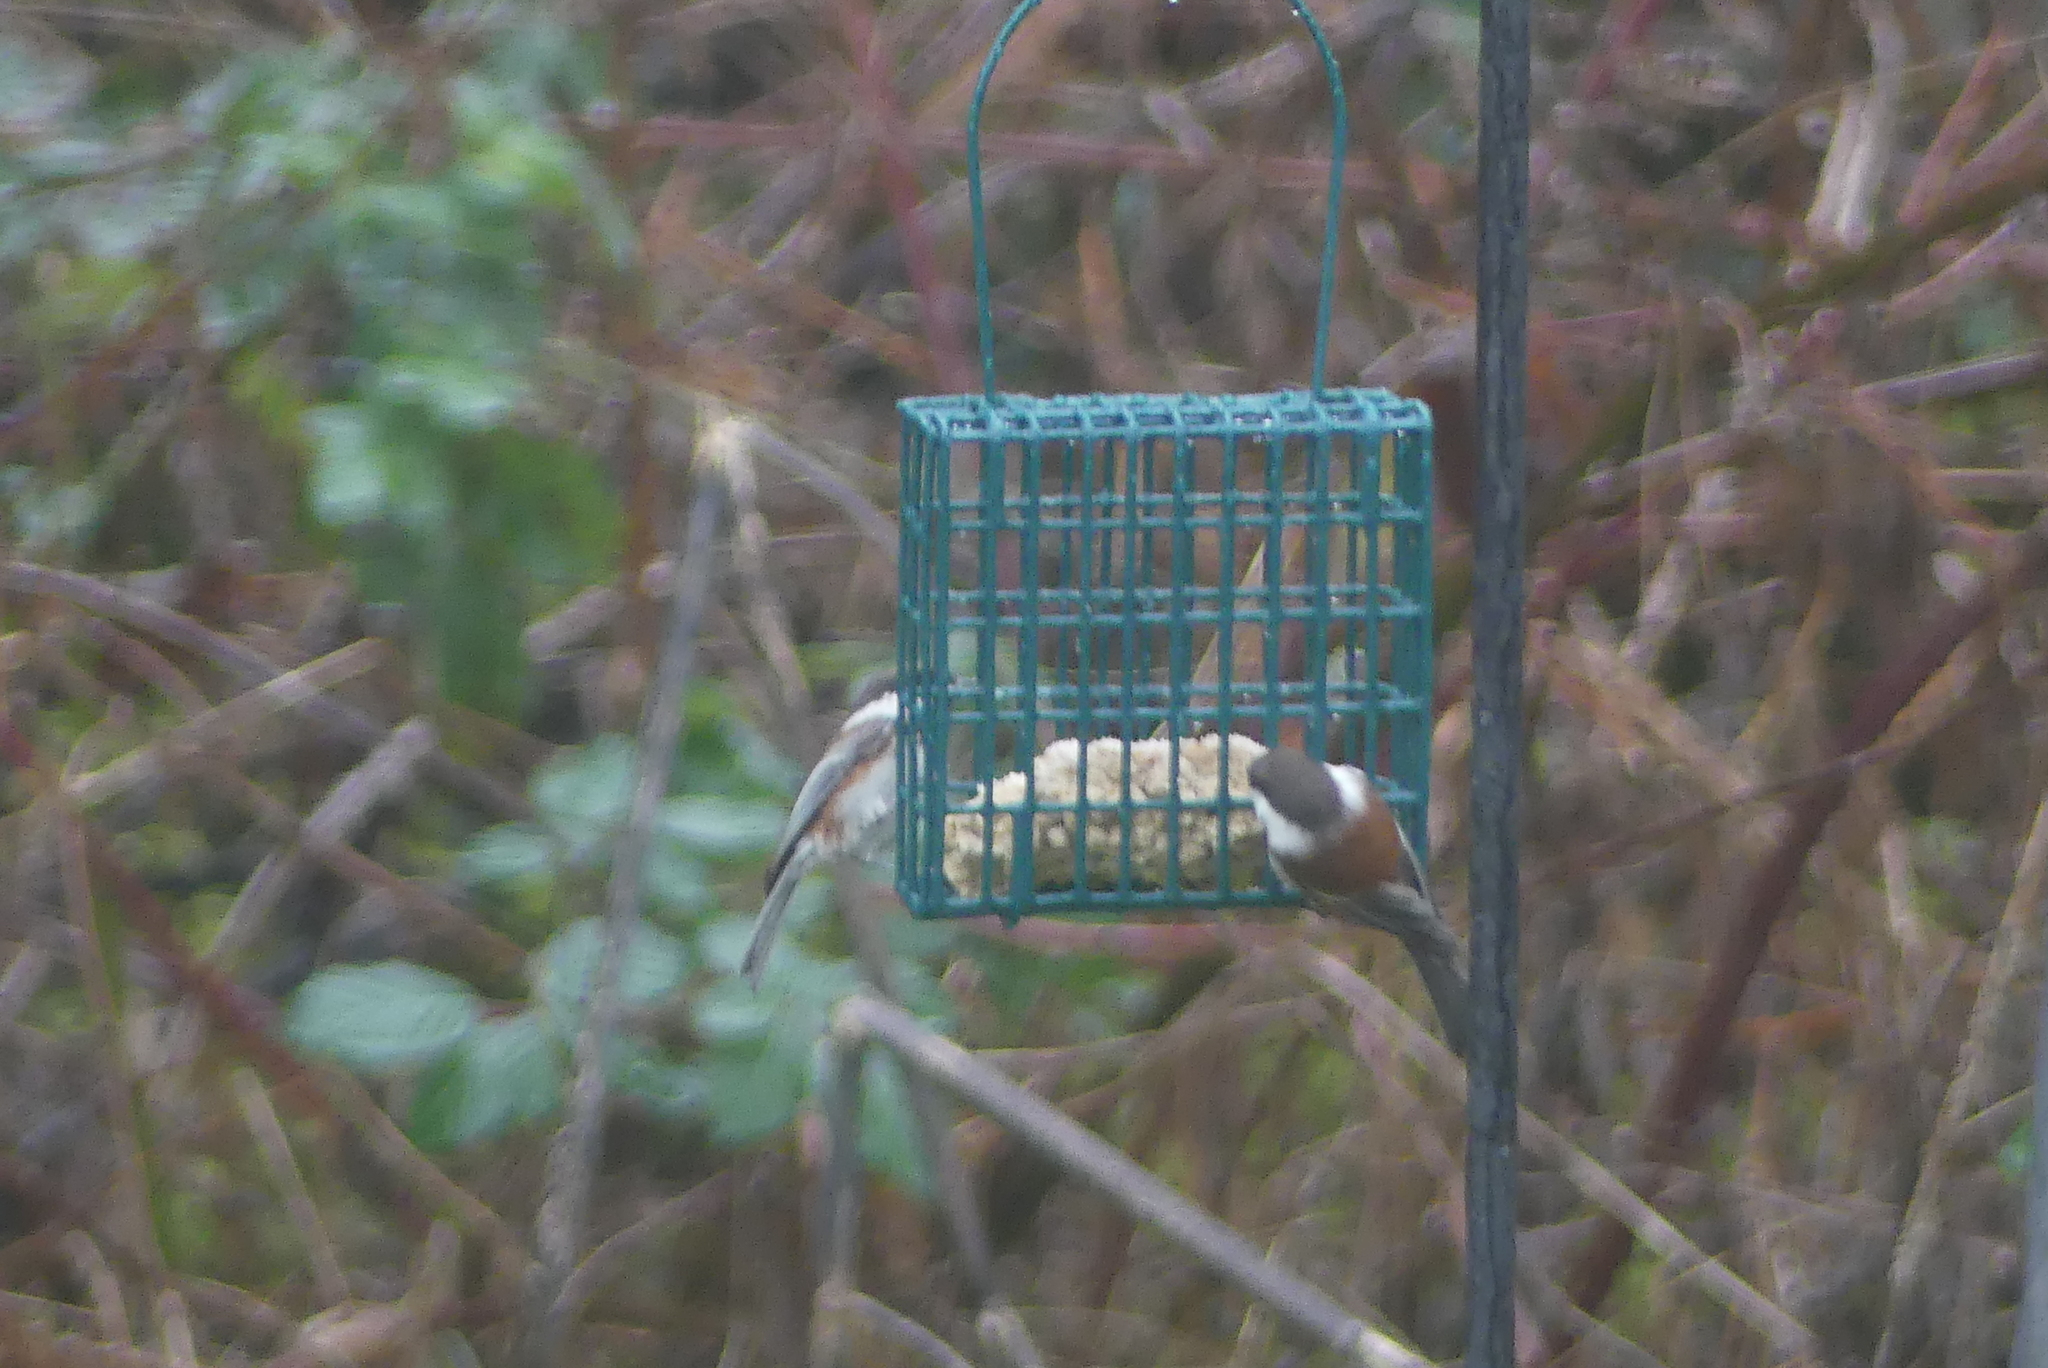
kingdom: Animalia
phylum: Chordata
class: Aves
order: Passeriformes
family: Paridae
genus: Poecile
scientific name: Poecile rufescens
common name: Chestnut-backed chickadee
